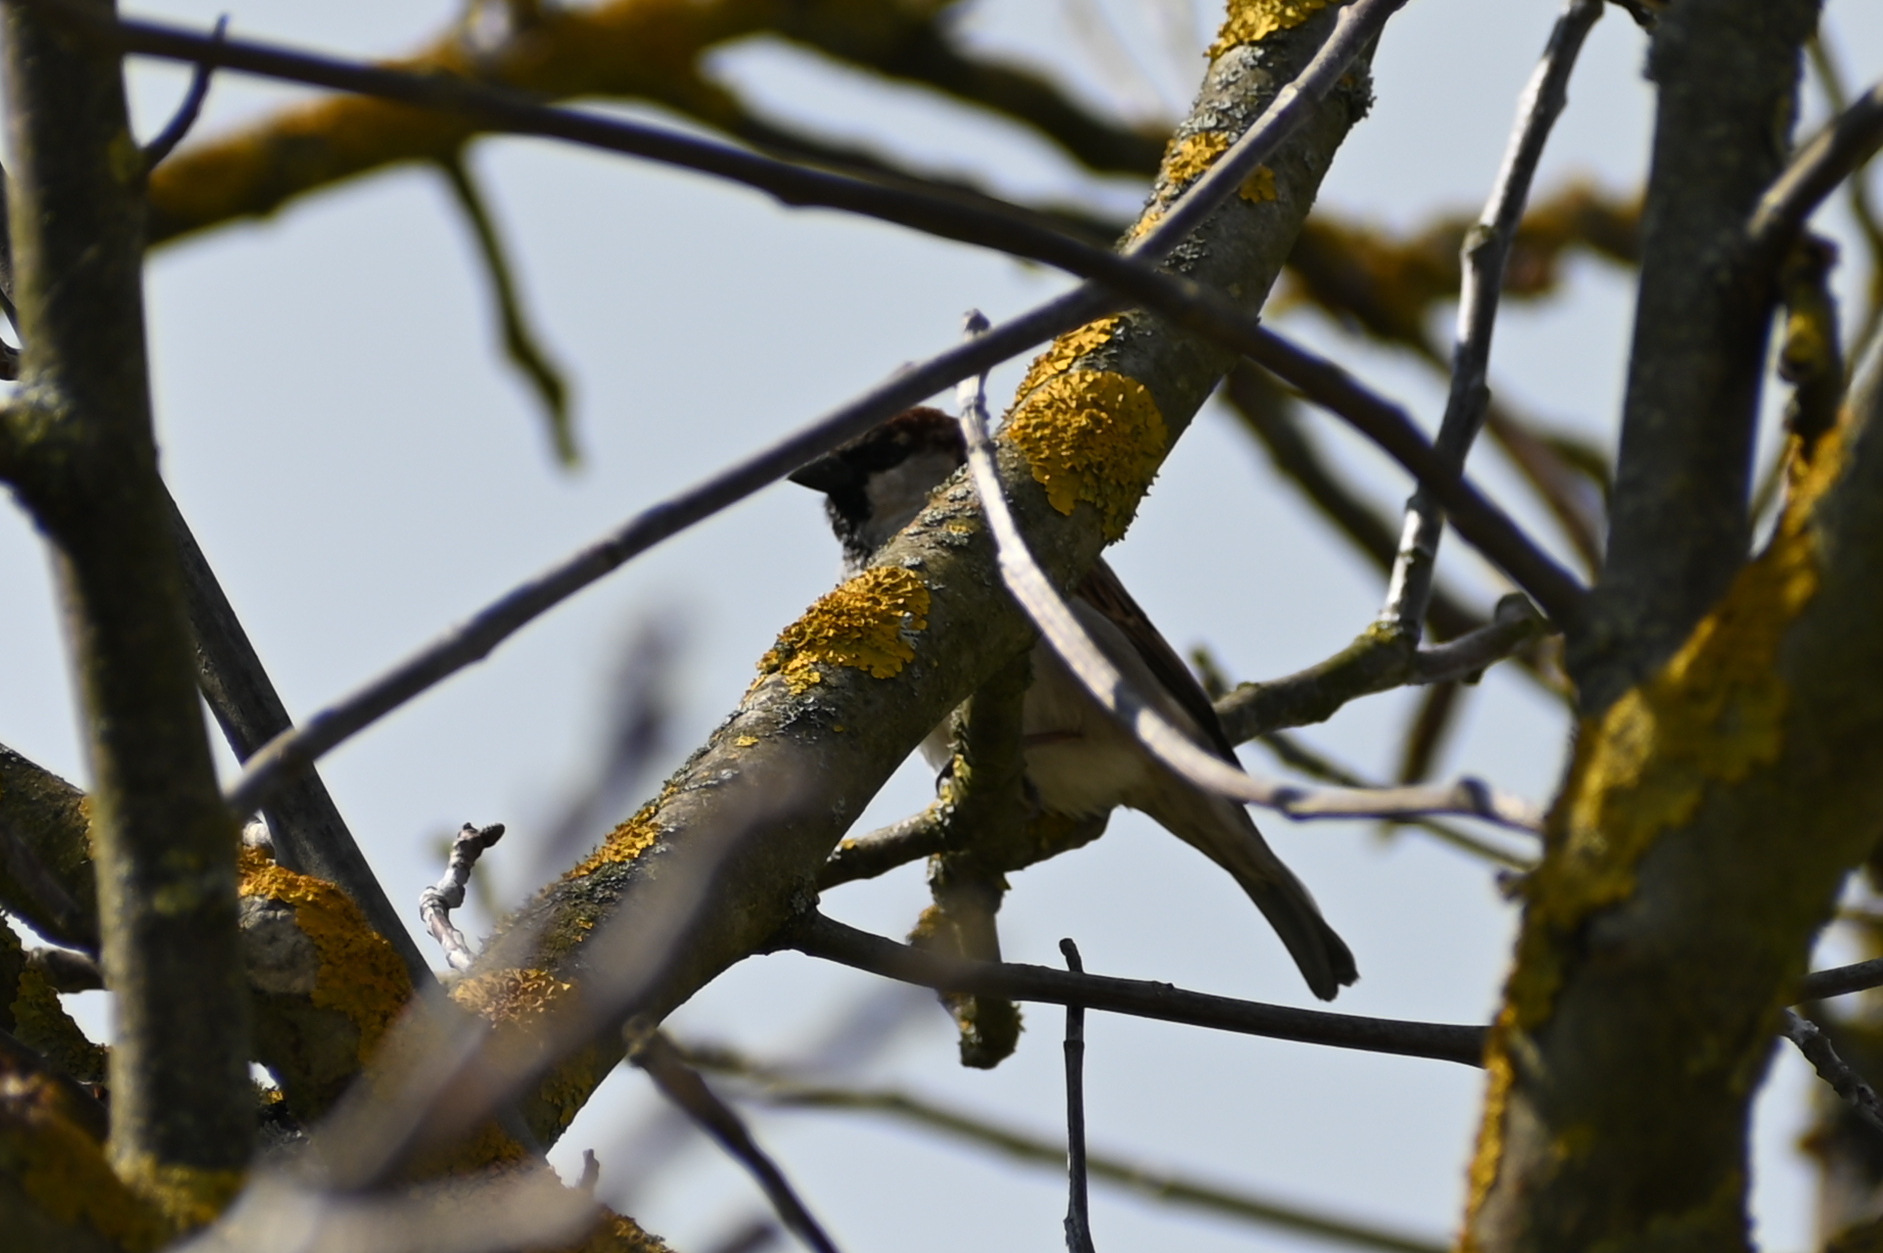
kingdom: Animalia
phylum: Chordata
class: Aves
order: Passeriformes
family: Passeridae
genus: Passer
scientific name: Passer domesticus
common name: House sparrow
